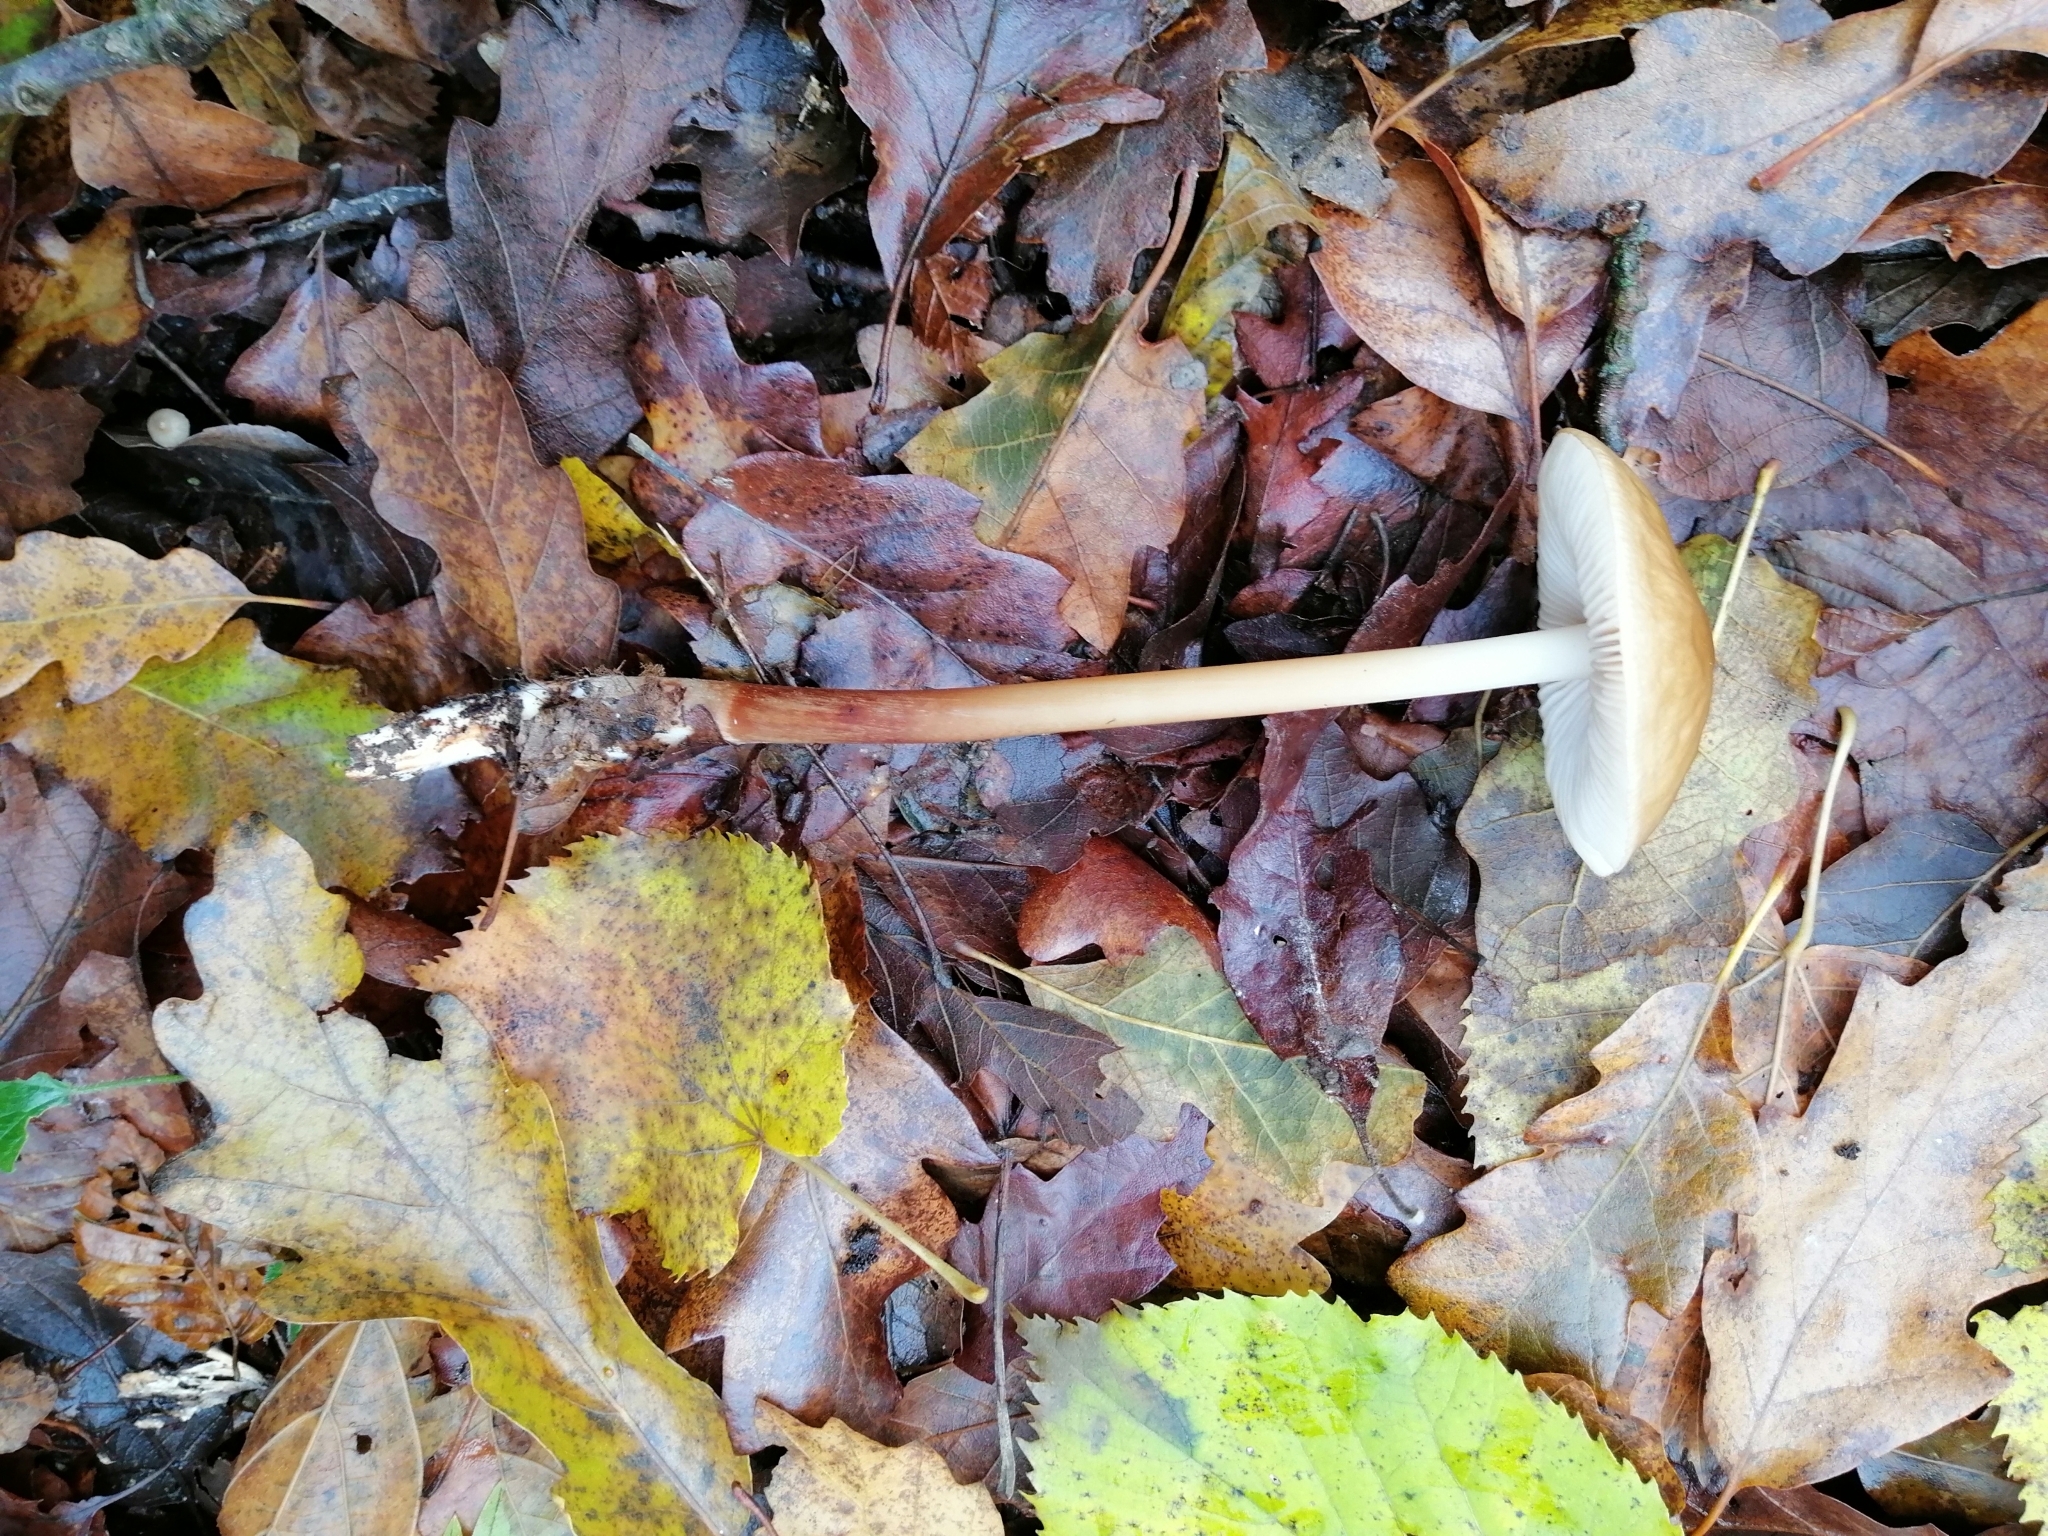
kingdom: Fungi
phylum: Basidiomycota
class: Agaricomycetes
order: Agaricales
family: Physalacriaceae
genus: Hymenopellis
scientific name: Hymenopellis radicata
